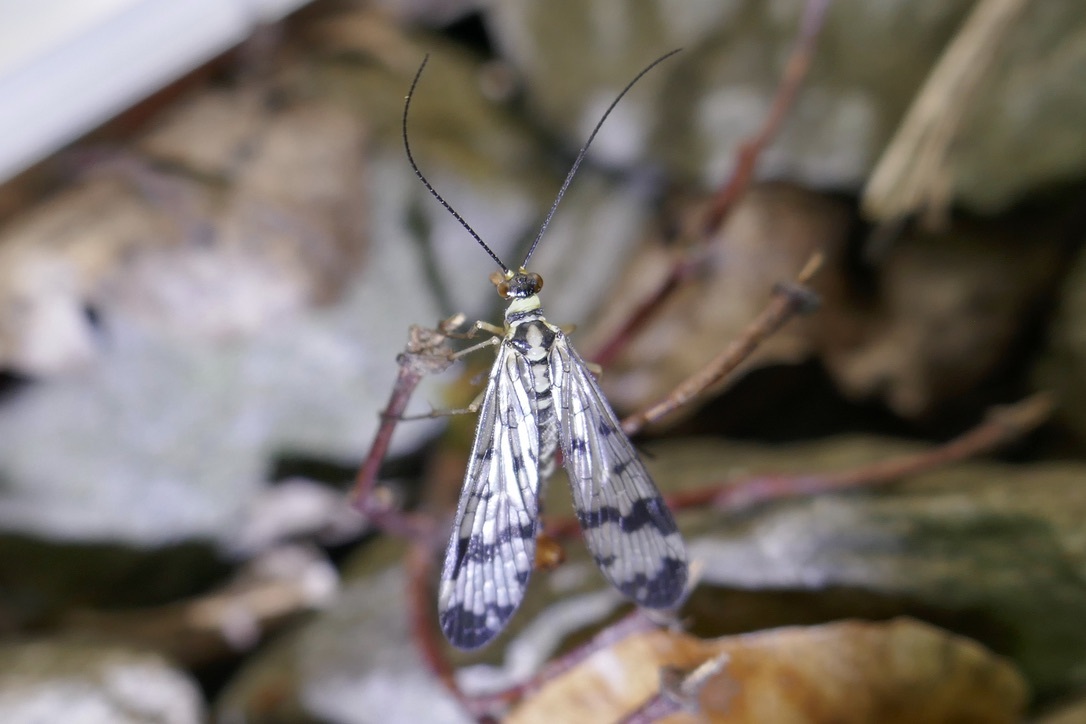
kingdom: Animalia
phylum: Arthropoda
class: Insecta
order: Mecoptera
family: Panorpidae
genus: Panorpa
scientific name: Panorpa communis
